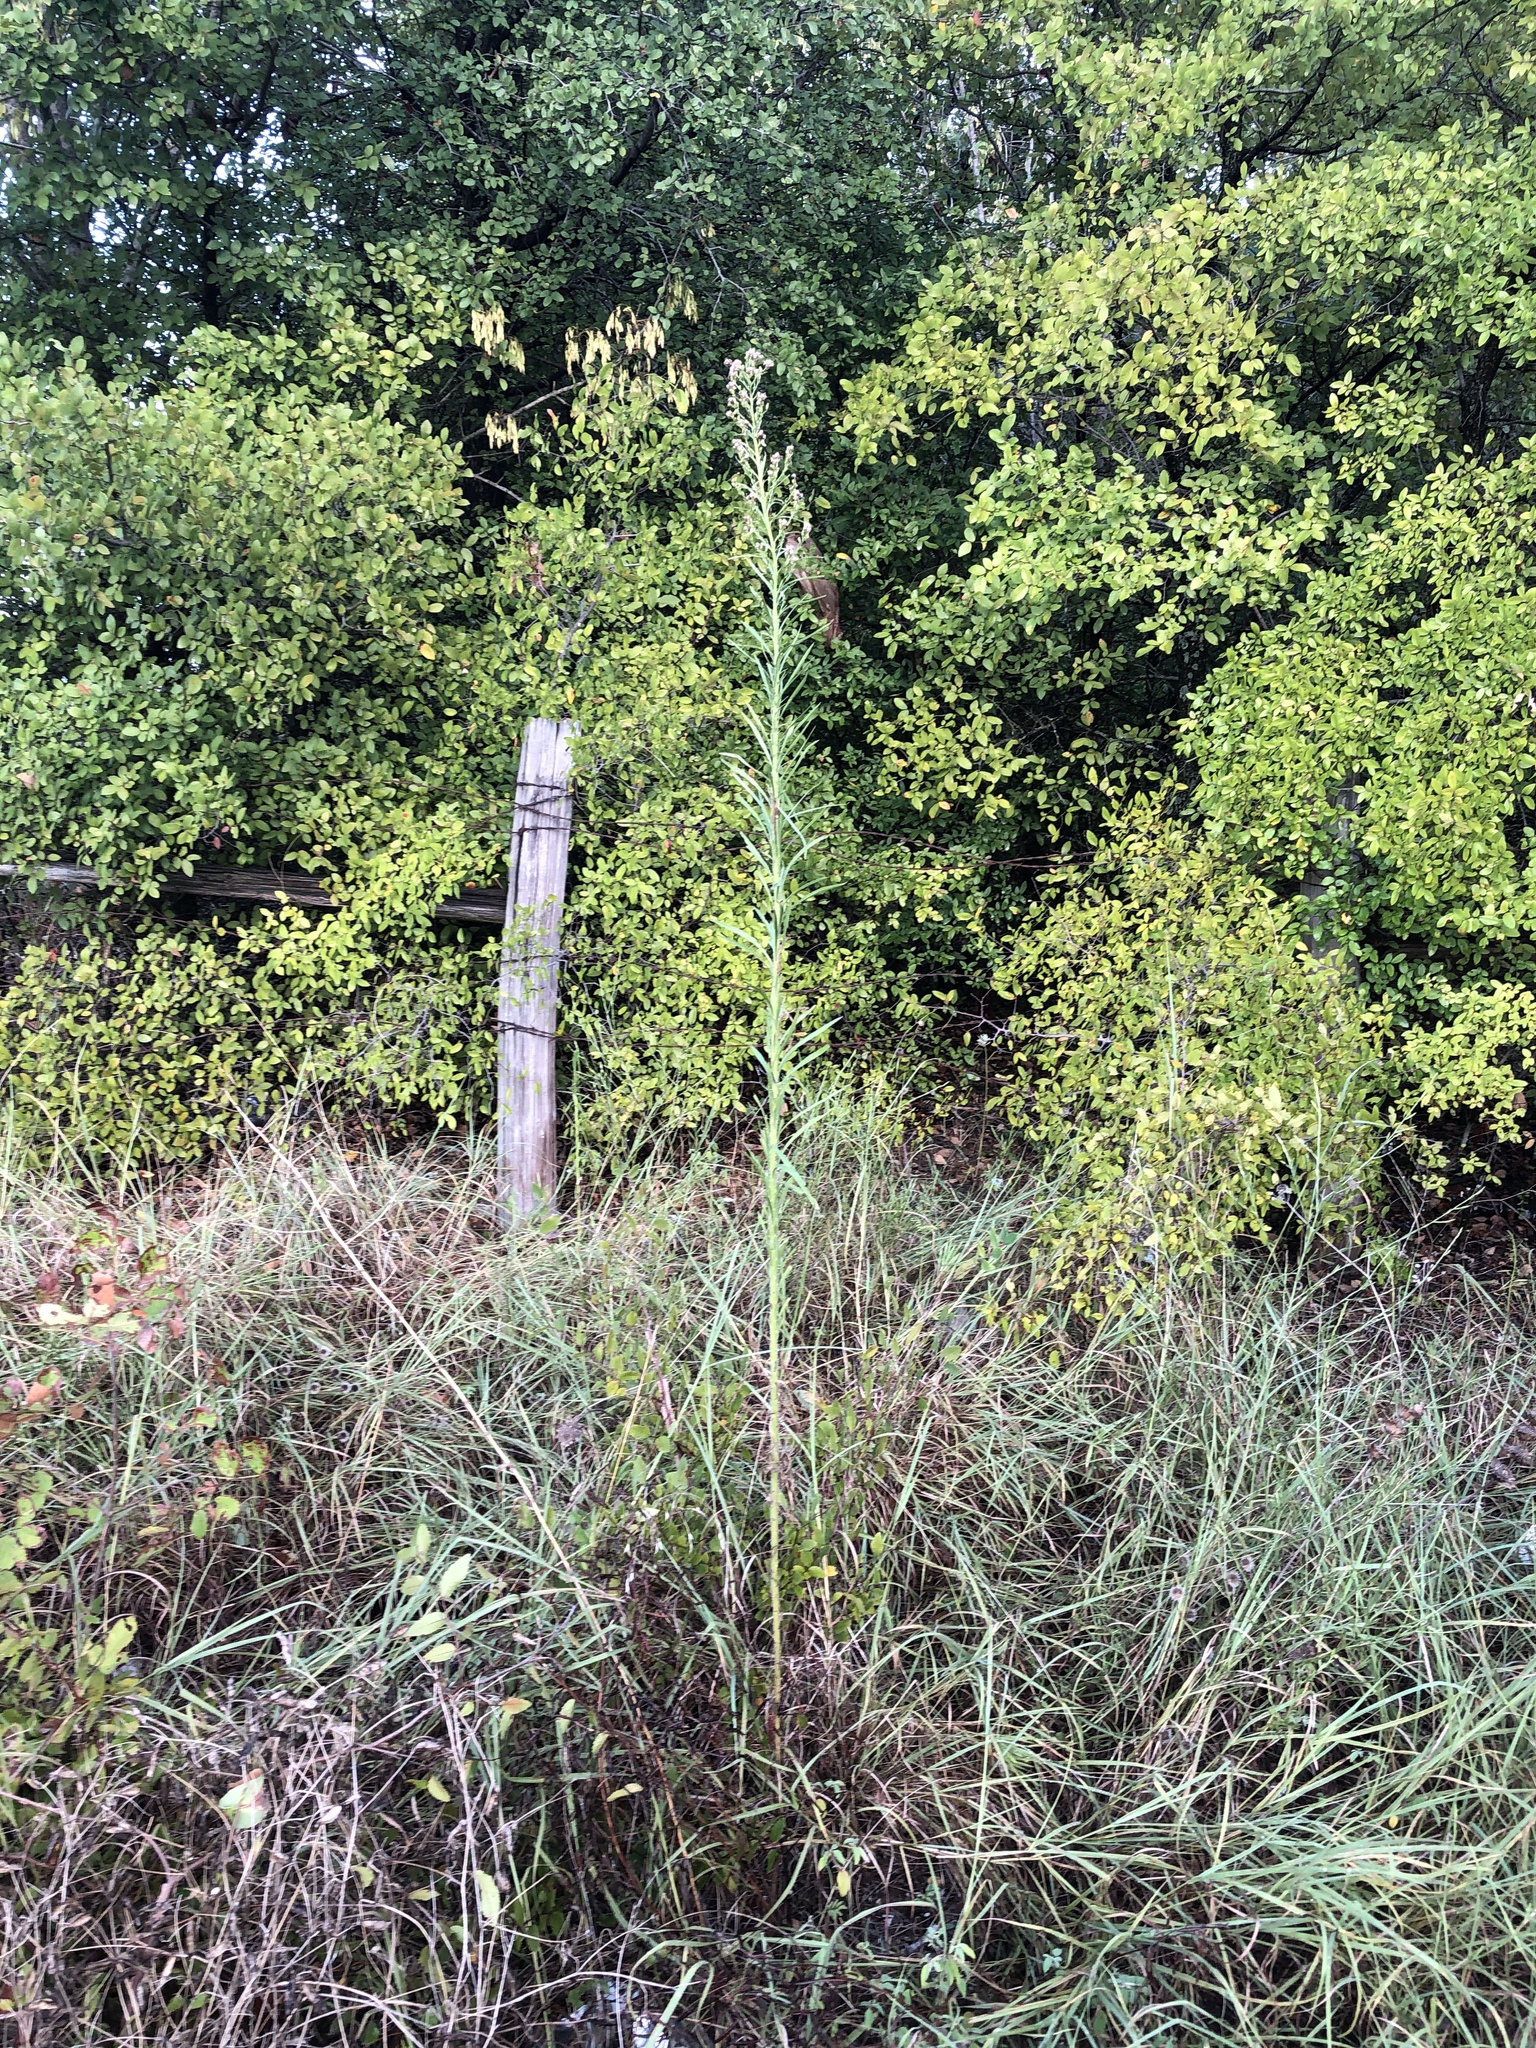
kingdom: Plantae
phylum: Tracheophyta
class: Magnoliopsida
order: Asterales
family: Asteraceae
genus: Erigeron
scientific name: Erigeron canadensis
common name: Canadian fleabane
